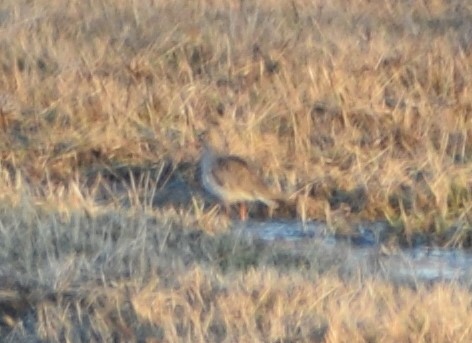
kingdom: Animalia
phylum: Chordata
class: Aves
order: Charadriiformes
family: Scolopacidae
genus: Tringa
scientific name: Tringa totanus
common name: Common redshank
